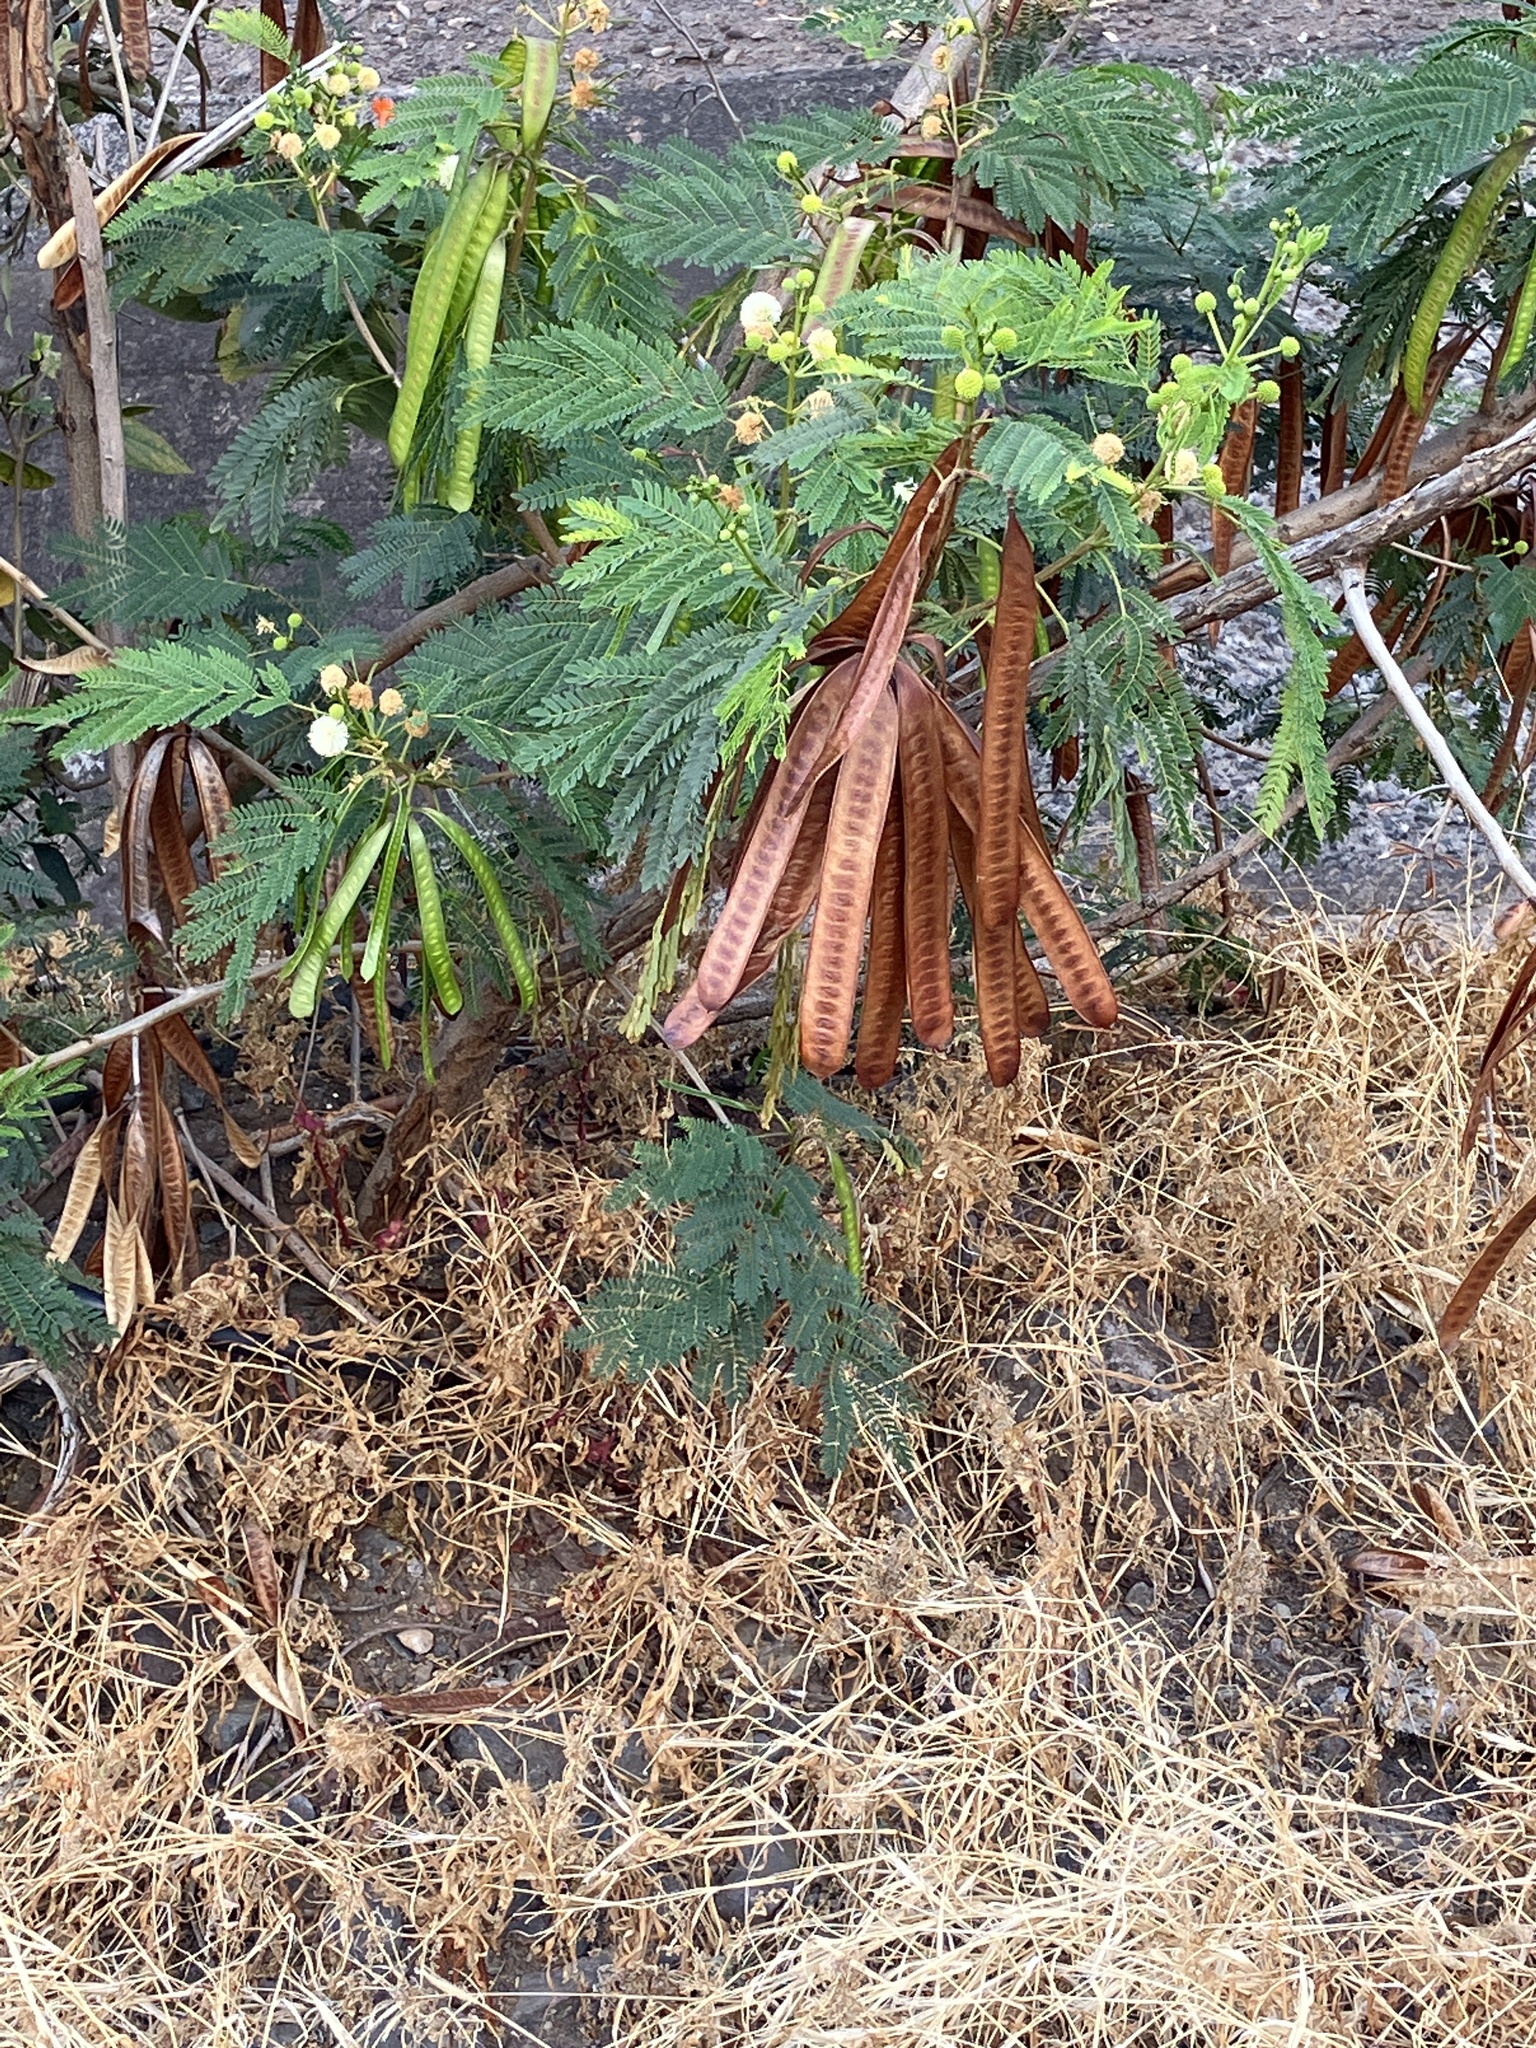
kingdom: Plantae
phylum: Tracheophyta
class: Magnoliopsida
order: Fabales
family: Fabaceae
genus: Leucaena
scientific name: Leucaena leucocephala
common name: White leadtree
